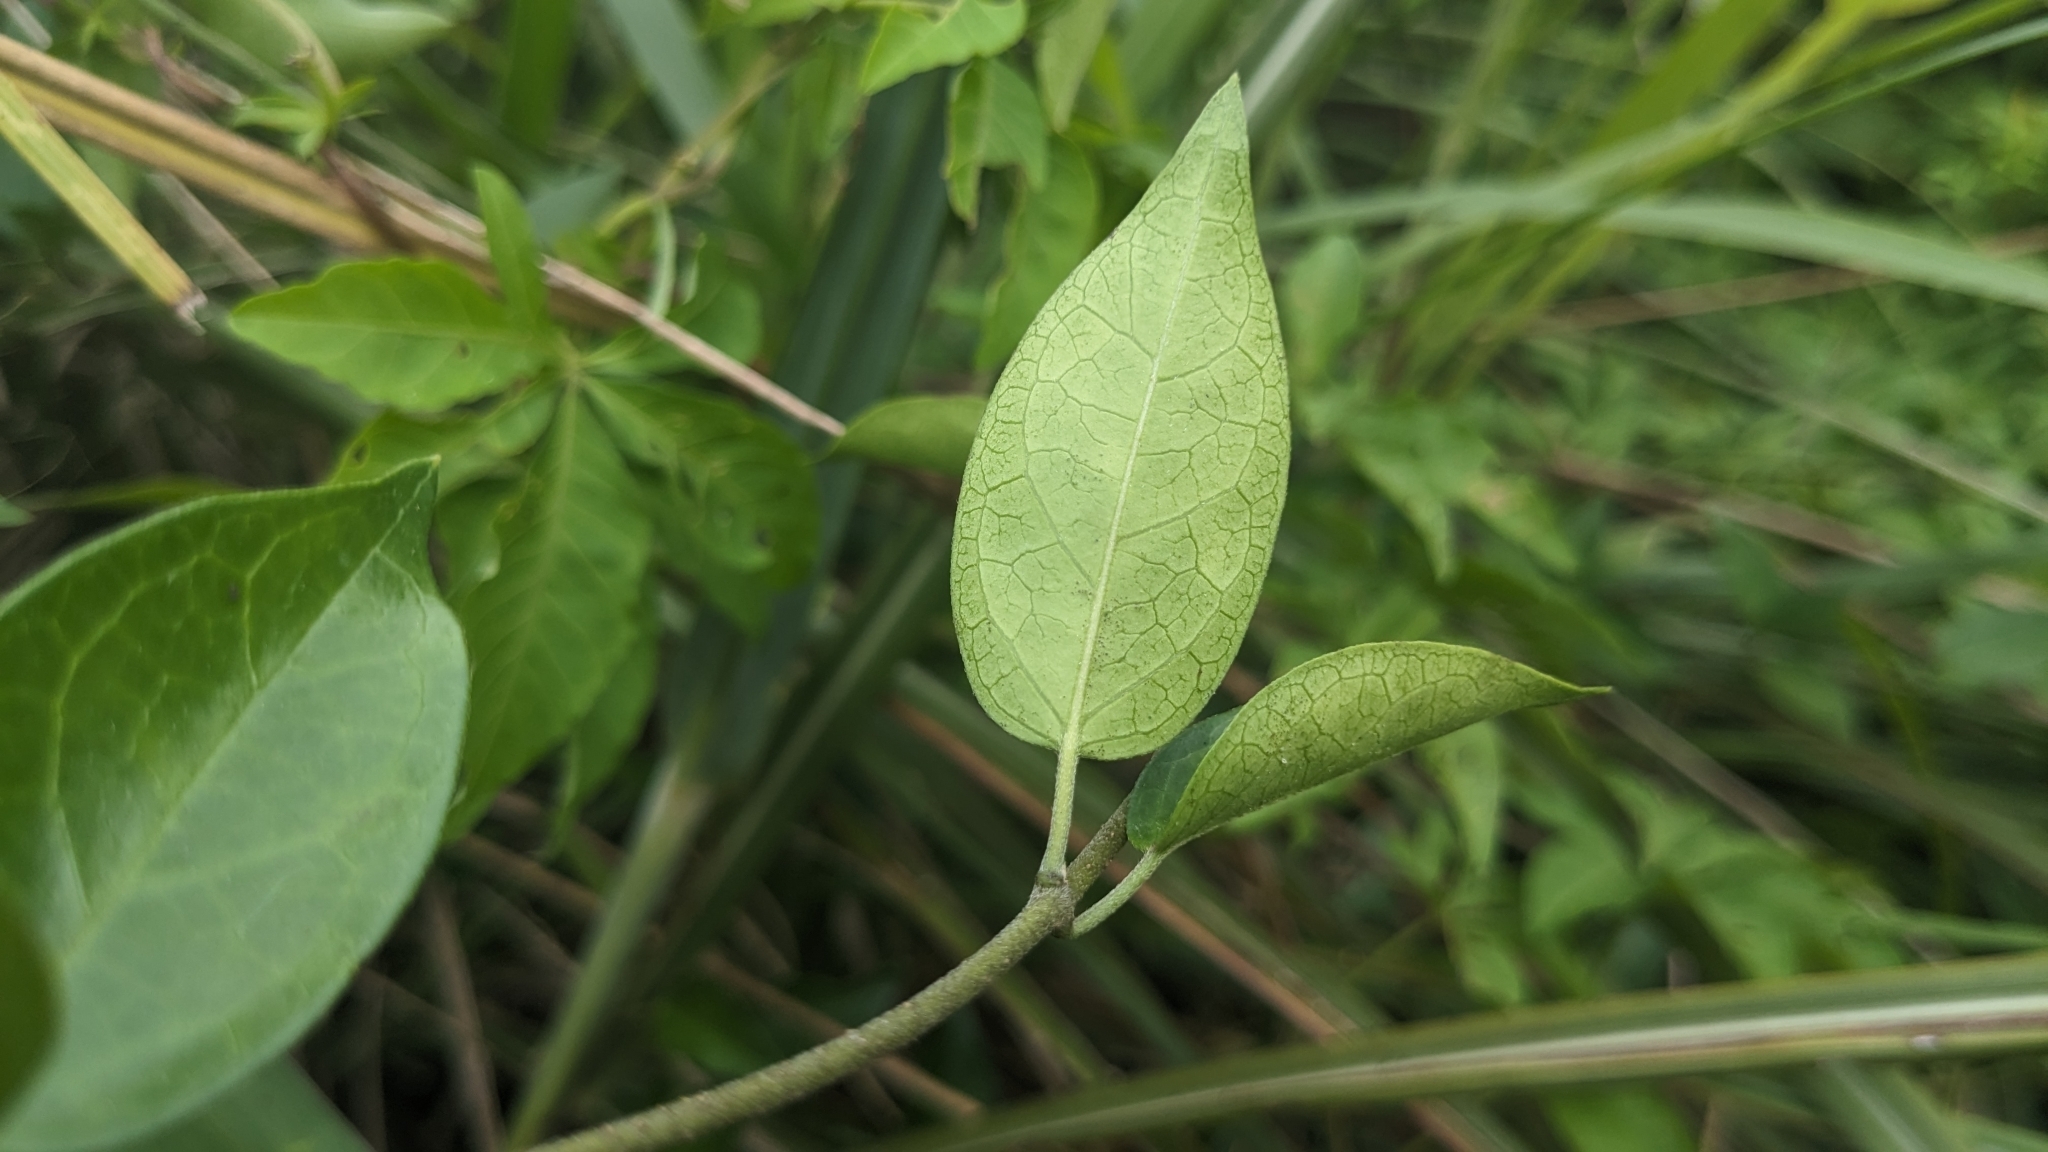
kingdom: Plantae
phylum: Tracheophyta
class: Magnoliopsida
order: Gentianales
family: Apocynaceae
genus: Gymnema
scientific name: Gymnema sylvestre
